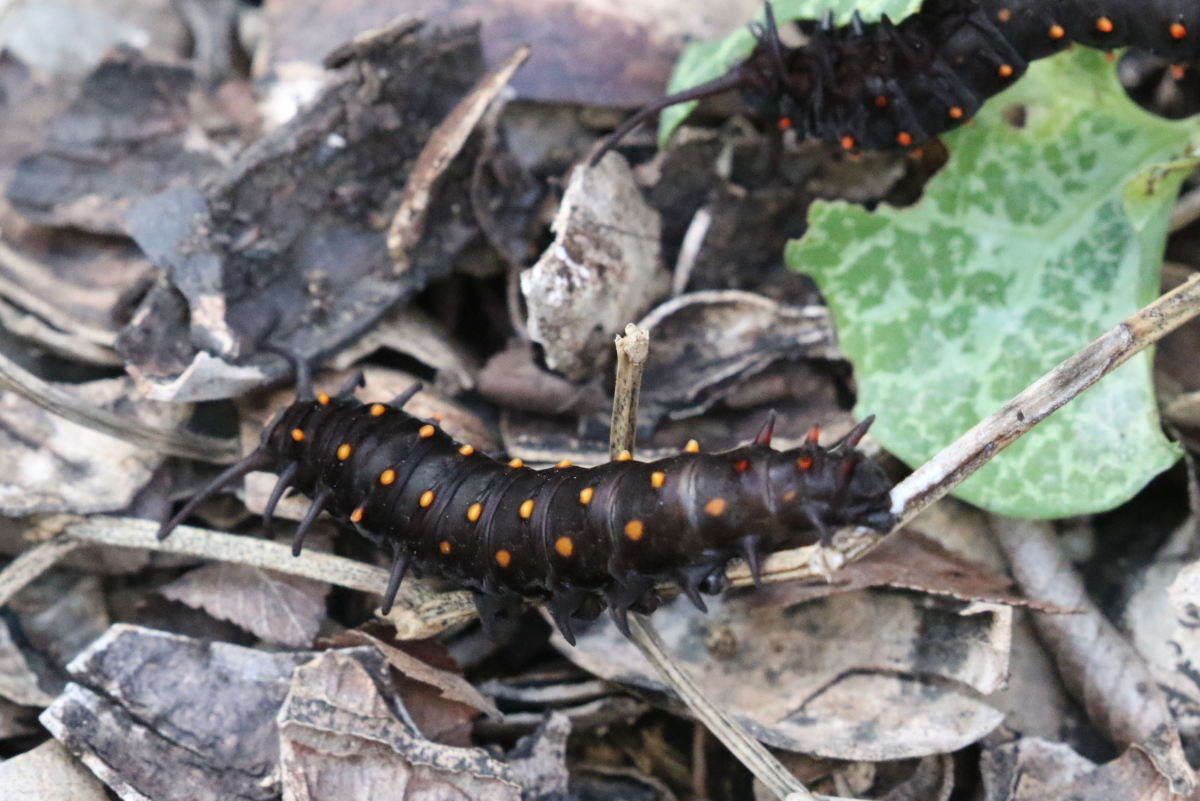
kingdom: Animalia
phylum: Arthropoda
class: Insecta
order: Lepidoptera
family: Papilionidae
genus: Battus
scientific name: Battus philenor
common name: Pipevine swallowtail
